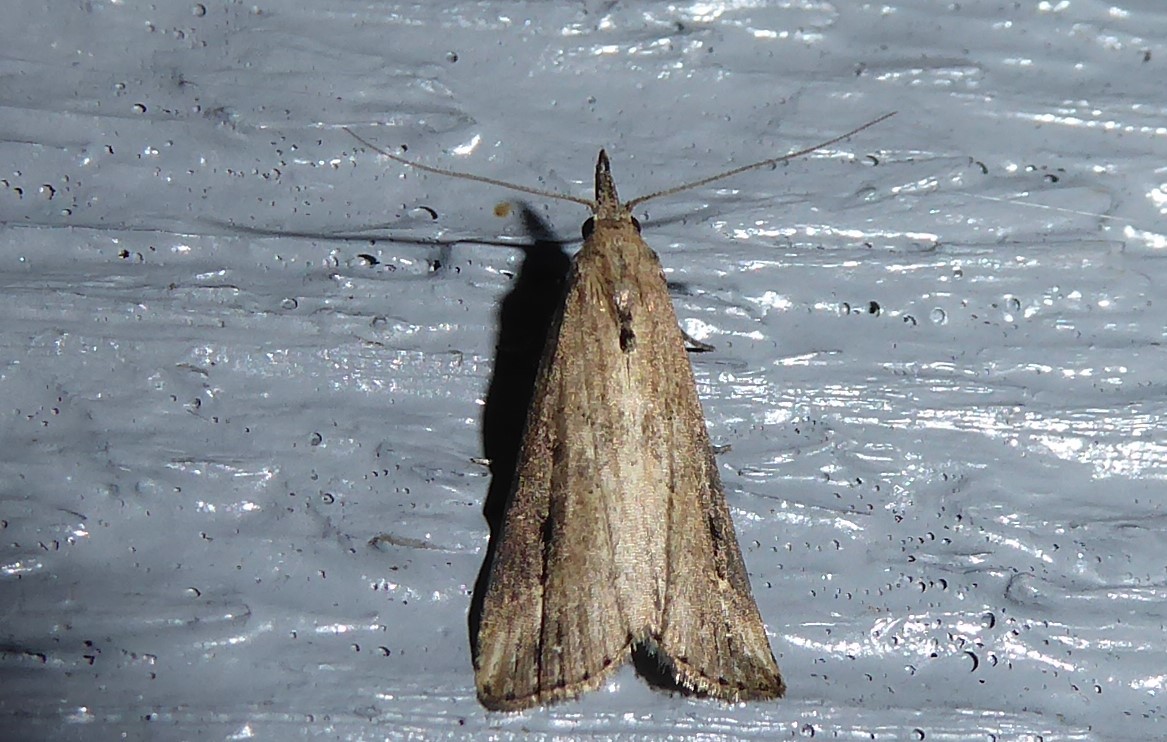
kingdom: Animalia
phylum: Arthropoda
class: Insecta
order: Lepidoptera
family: Erebidae
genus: Schrankia
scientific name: Schrankia costaestrigalis
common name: Pinion-streaked snout
